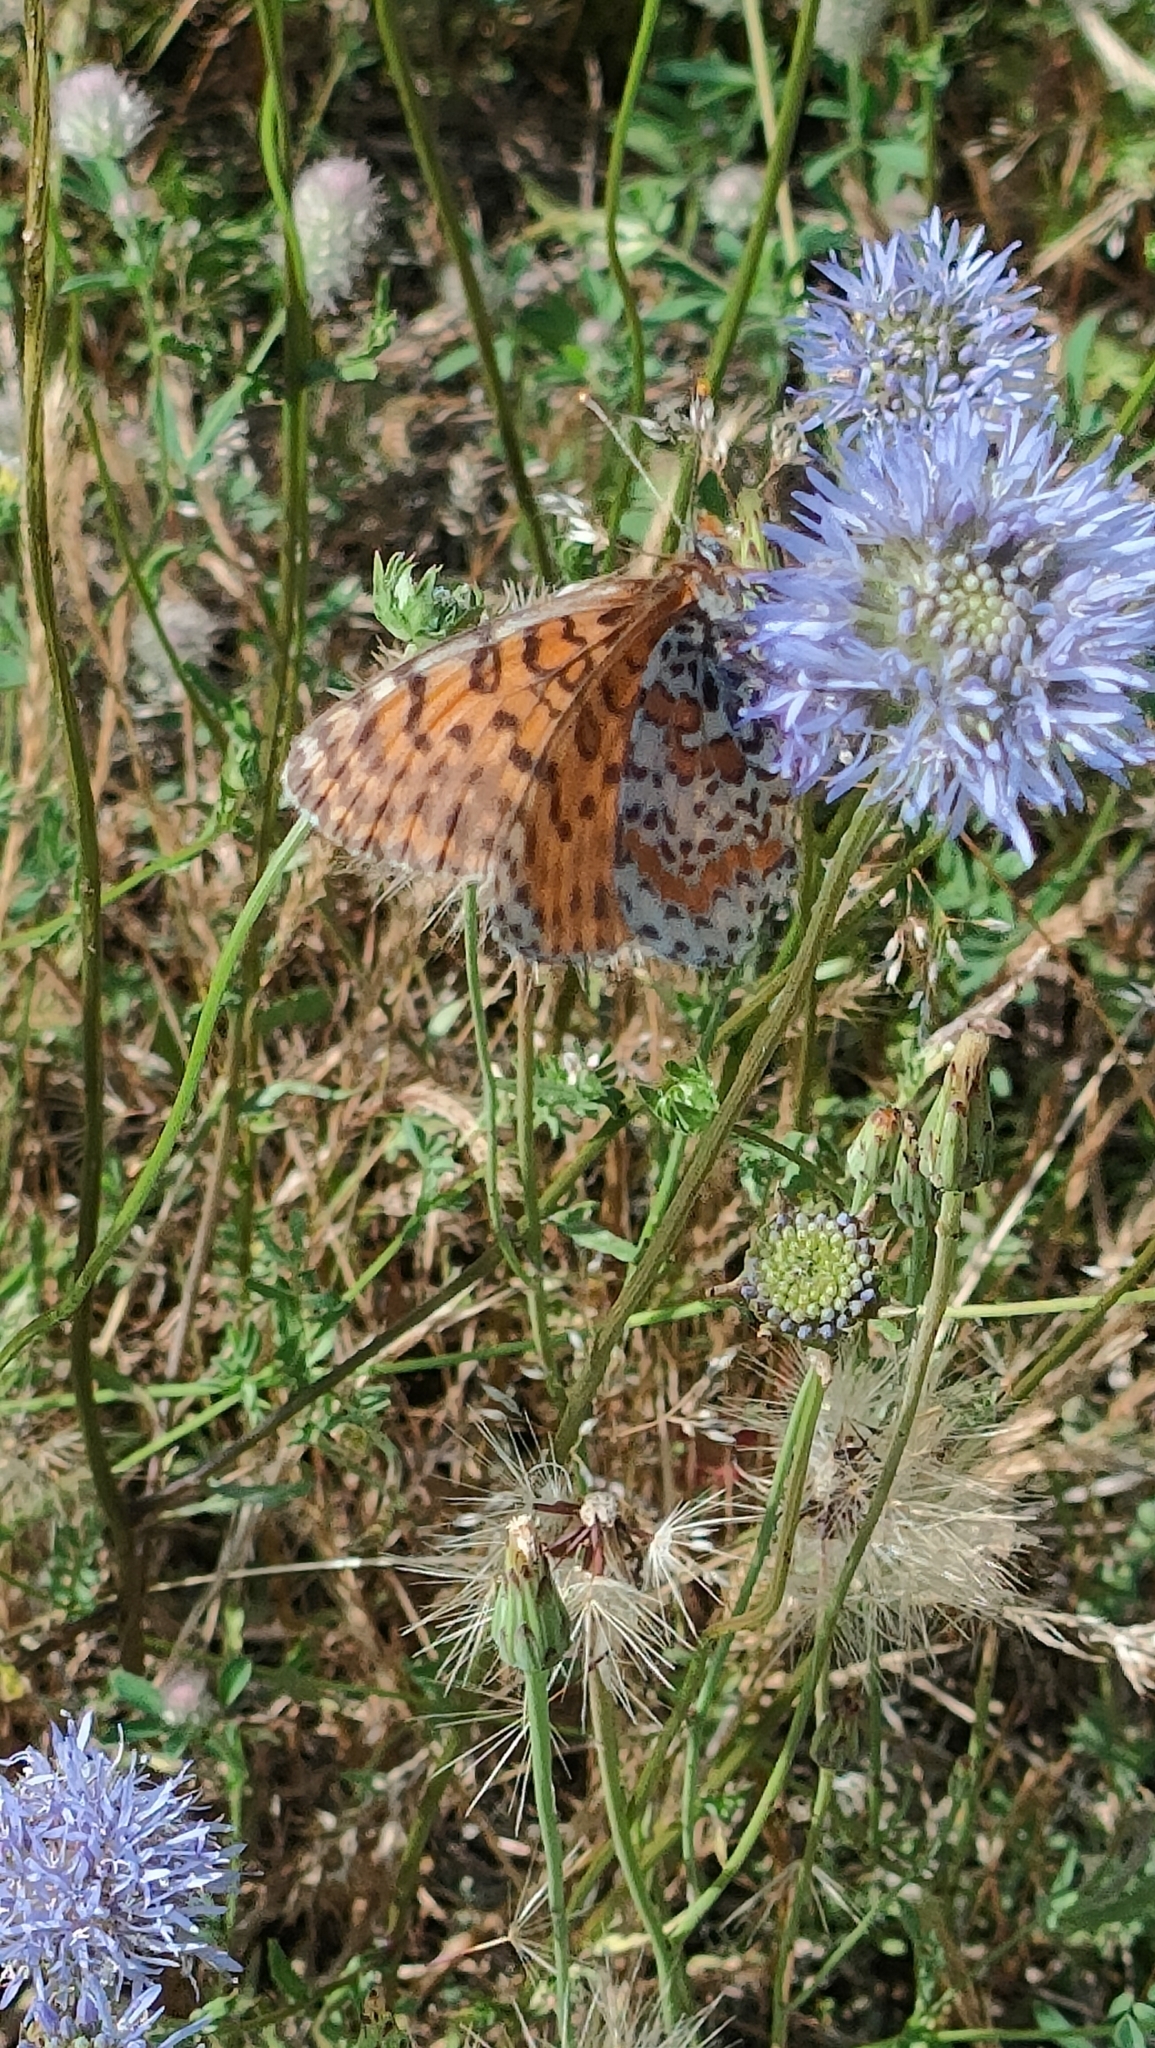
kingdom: Animalia
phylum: Arthropoda
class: Insecta
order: Lepidoptera
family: Nymphalidae
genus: Melitaea
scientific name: Melitaea didyma
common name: Spotted fritillary
